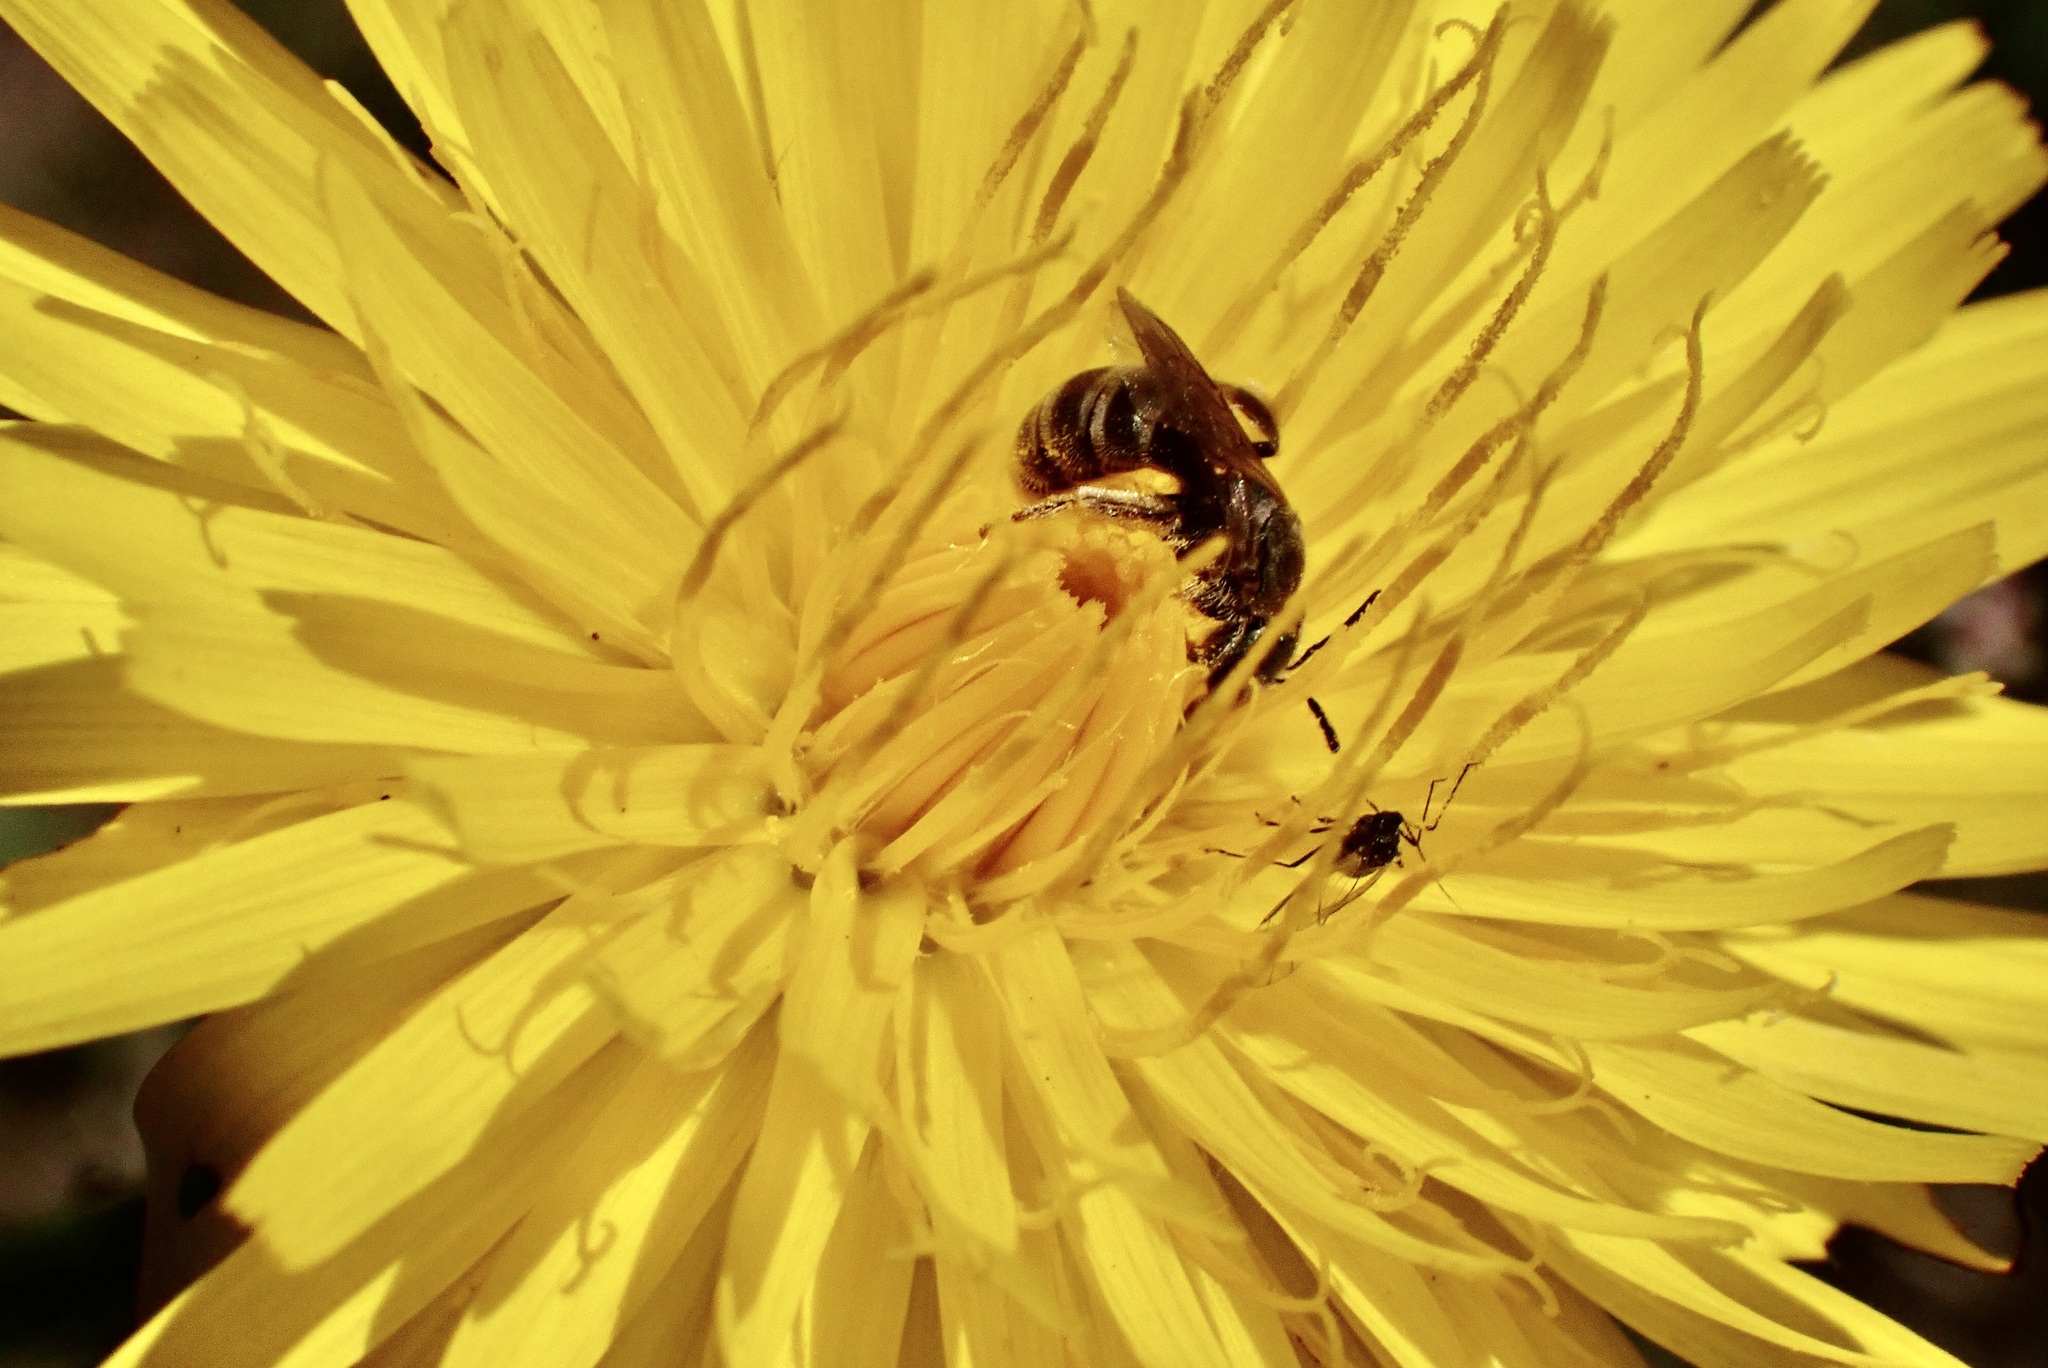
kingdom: Animalia
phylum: Arthropoda
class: Insecta
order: Hymenoptera
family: Halictidae
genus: Halictus
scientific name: Halictus tripartitus
